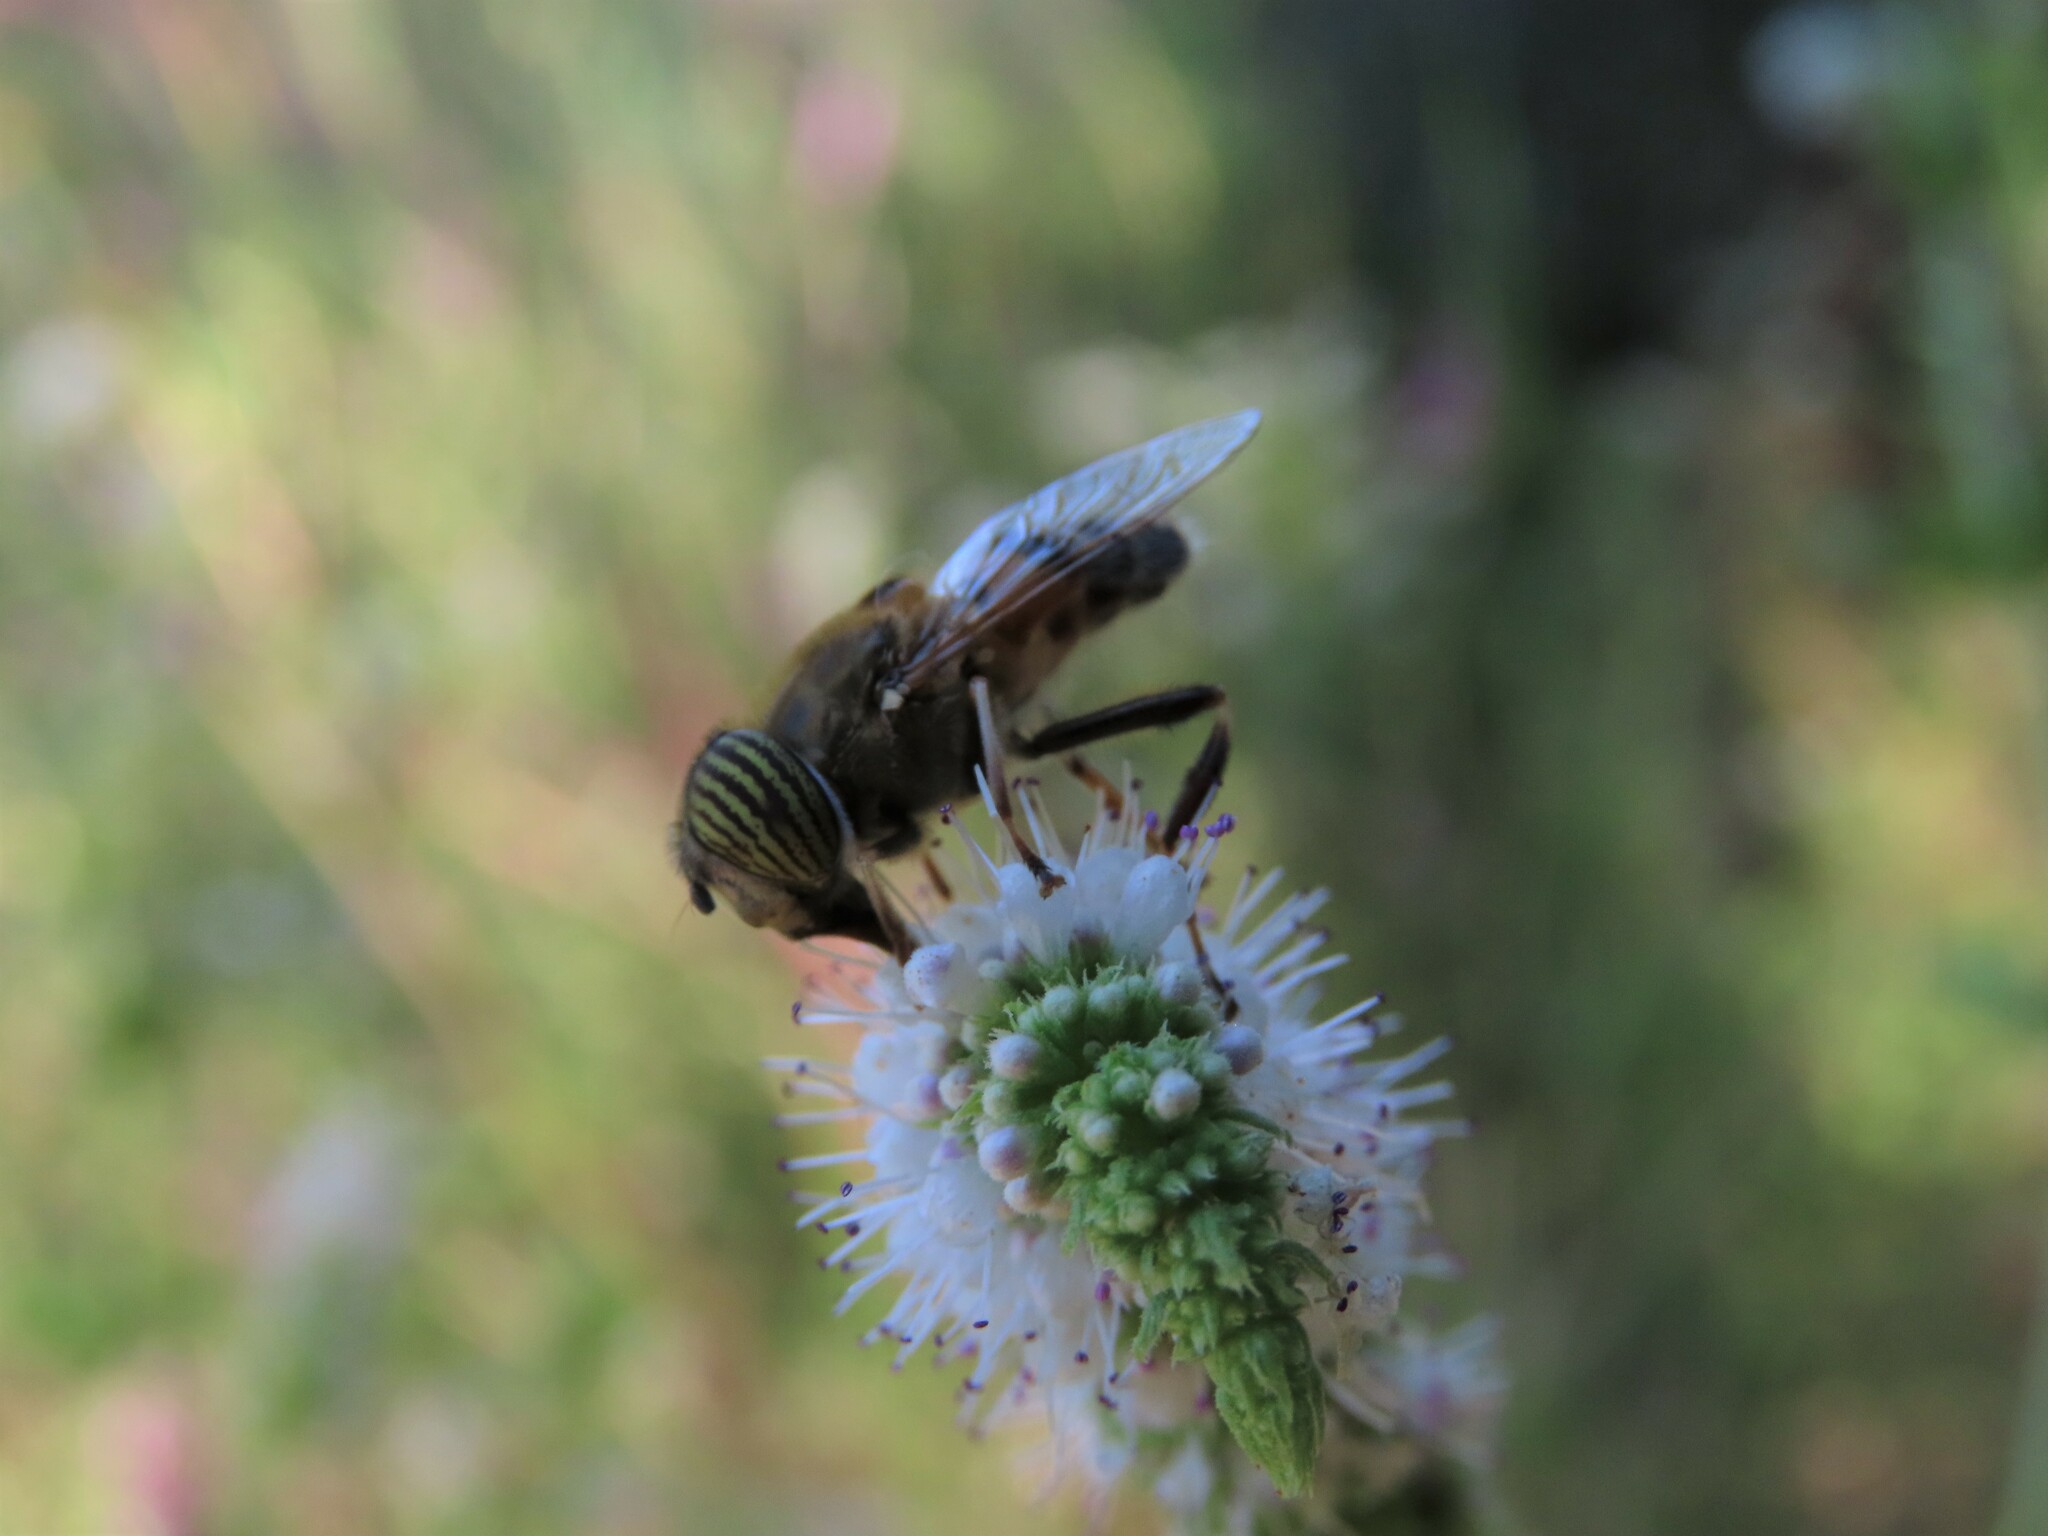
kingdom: Animalia
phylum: Arthropoda
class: Insecta
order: Diptera
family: Syrphidae
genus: Eristalinus
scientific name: Eristalinus taeniops
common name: Syrphid fly
